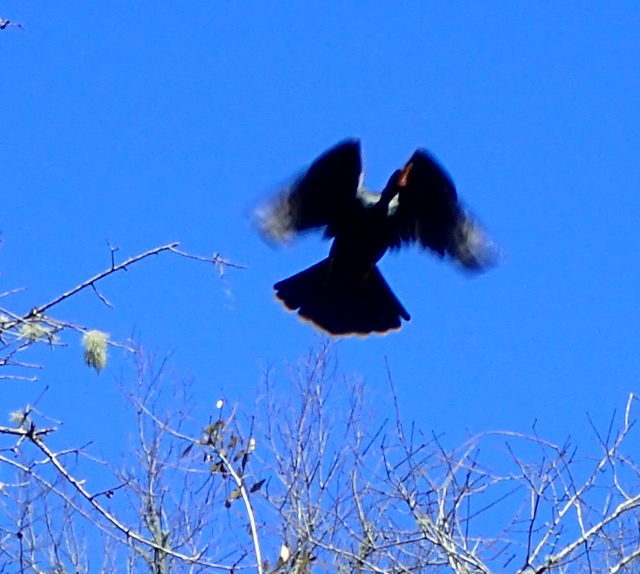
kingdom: Animalia
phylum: Chordata
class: Aves
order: Suliformes
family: Anhingidae
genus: Anhinga
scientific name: Anhinga anhinga
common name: Anhinga
